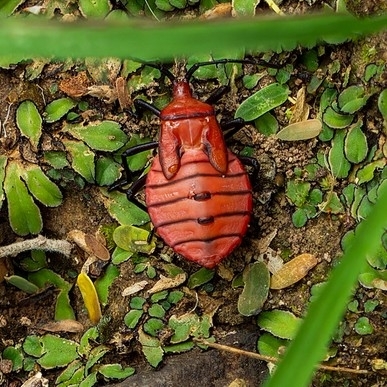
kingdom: Animalia
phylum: Arthropoda
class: Insecta
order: Hemiptera
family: Coreidae
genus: Brachytes
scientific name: Brachytes bicolor
